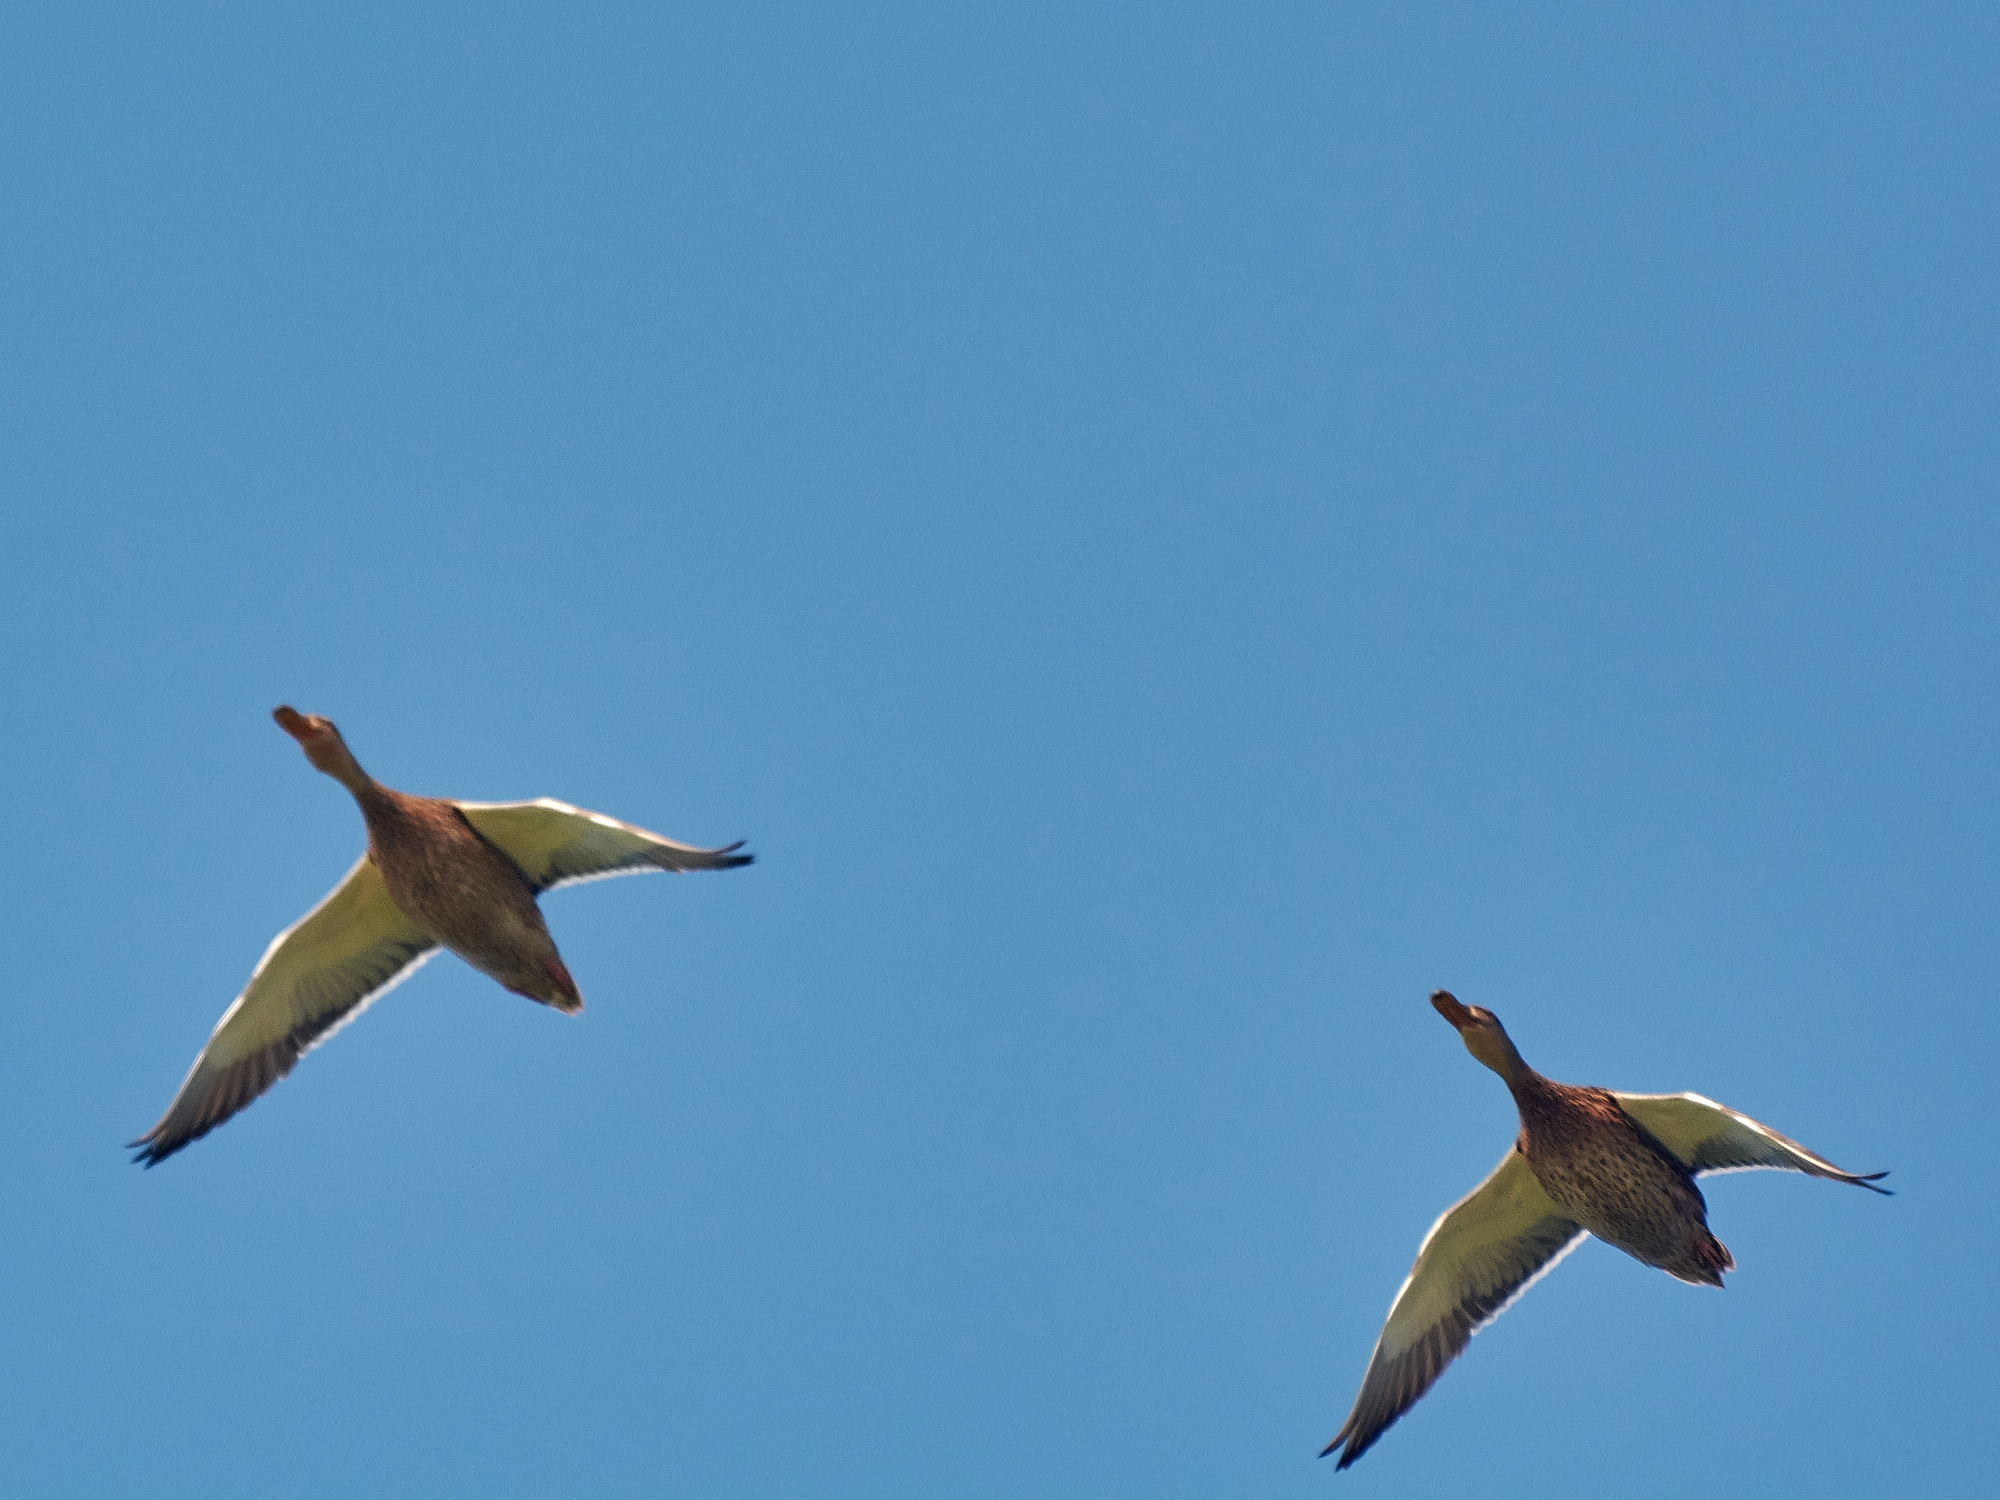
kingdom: Animalia
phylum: Chordata
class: Aves
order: Anseriformes
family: Anatidae
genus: Anas
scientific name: Anas platyrhynchos
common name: Mallard
